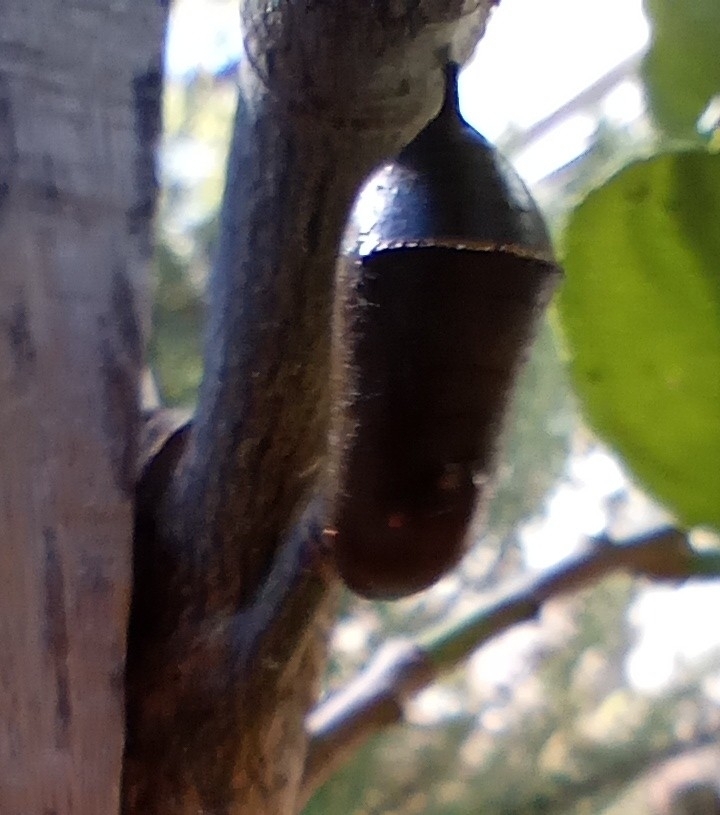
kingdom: Animalia
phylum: Arthropoda
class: Insecta
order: Lepidoptera
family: Nymphalidae
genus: Danaus
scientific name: Danaus erippus
